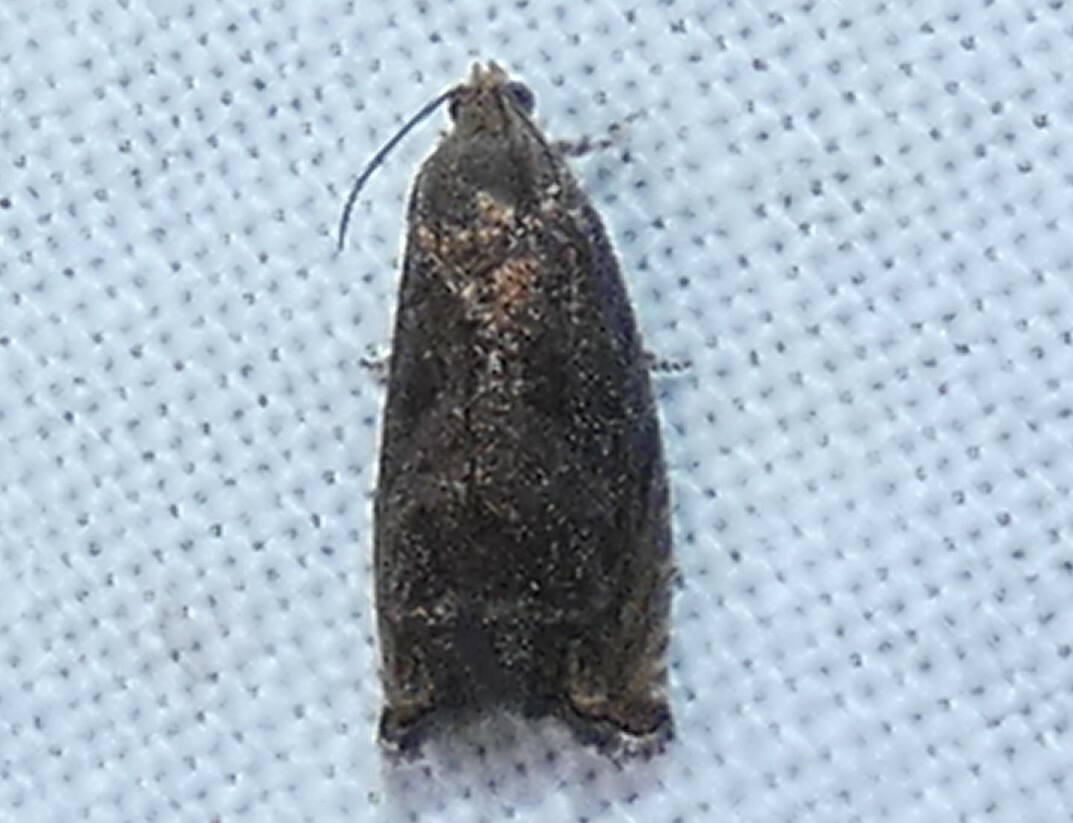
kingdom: Animalia
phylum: Arthropoda
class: Insecta
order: Lepidoptera
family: Tortricidae
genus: Cydia
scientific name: Cydia caryana
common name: Hickory shuckworm moth
